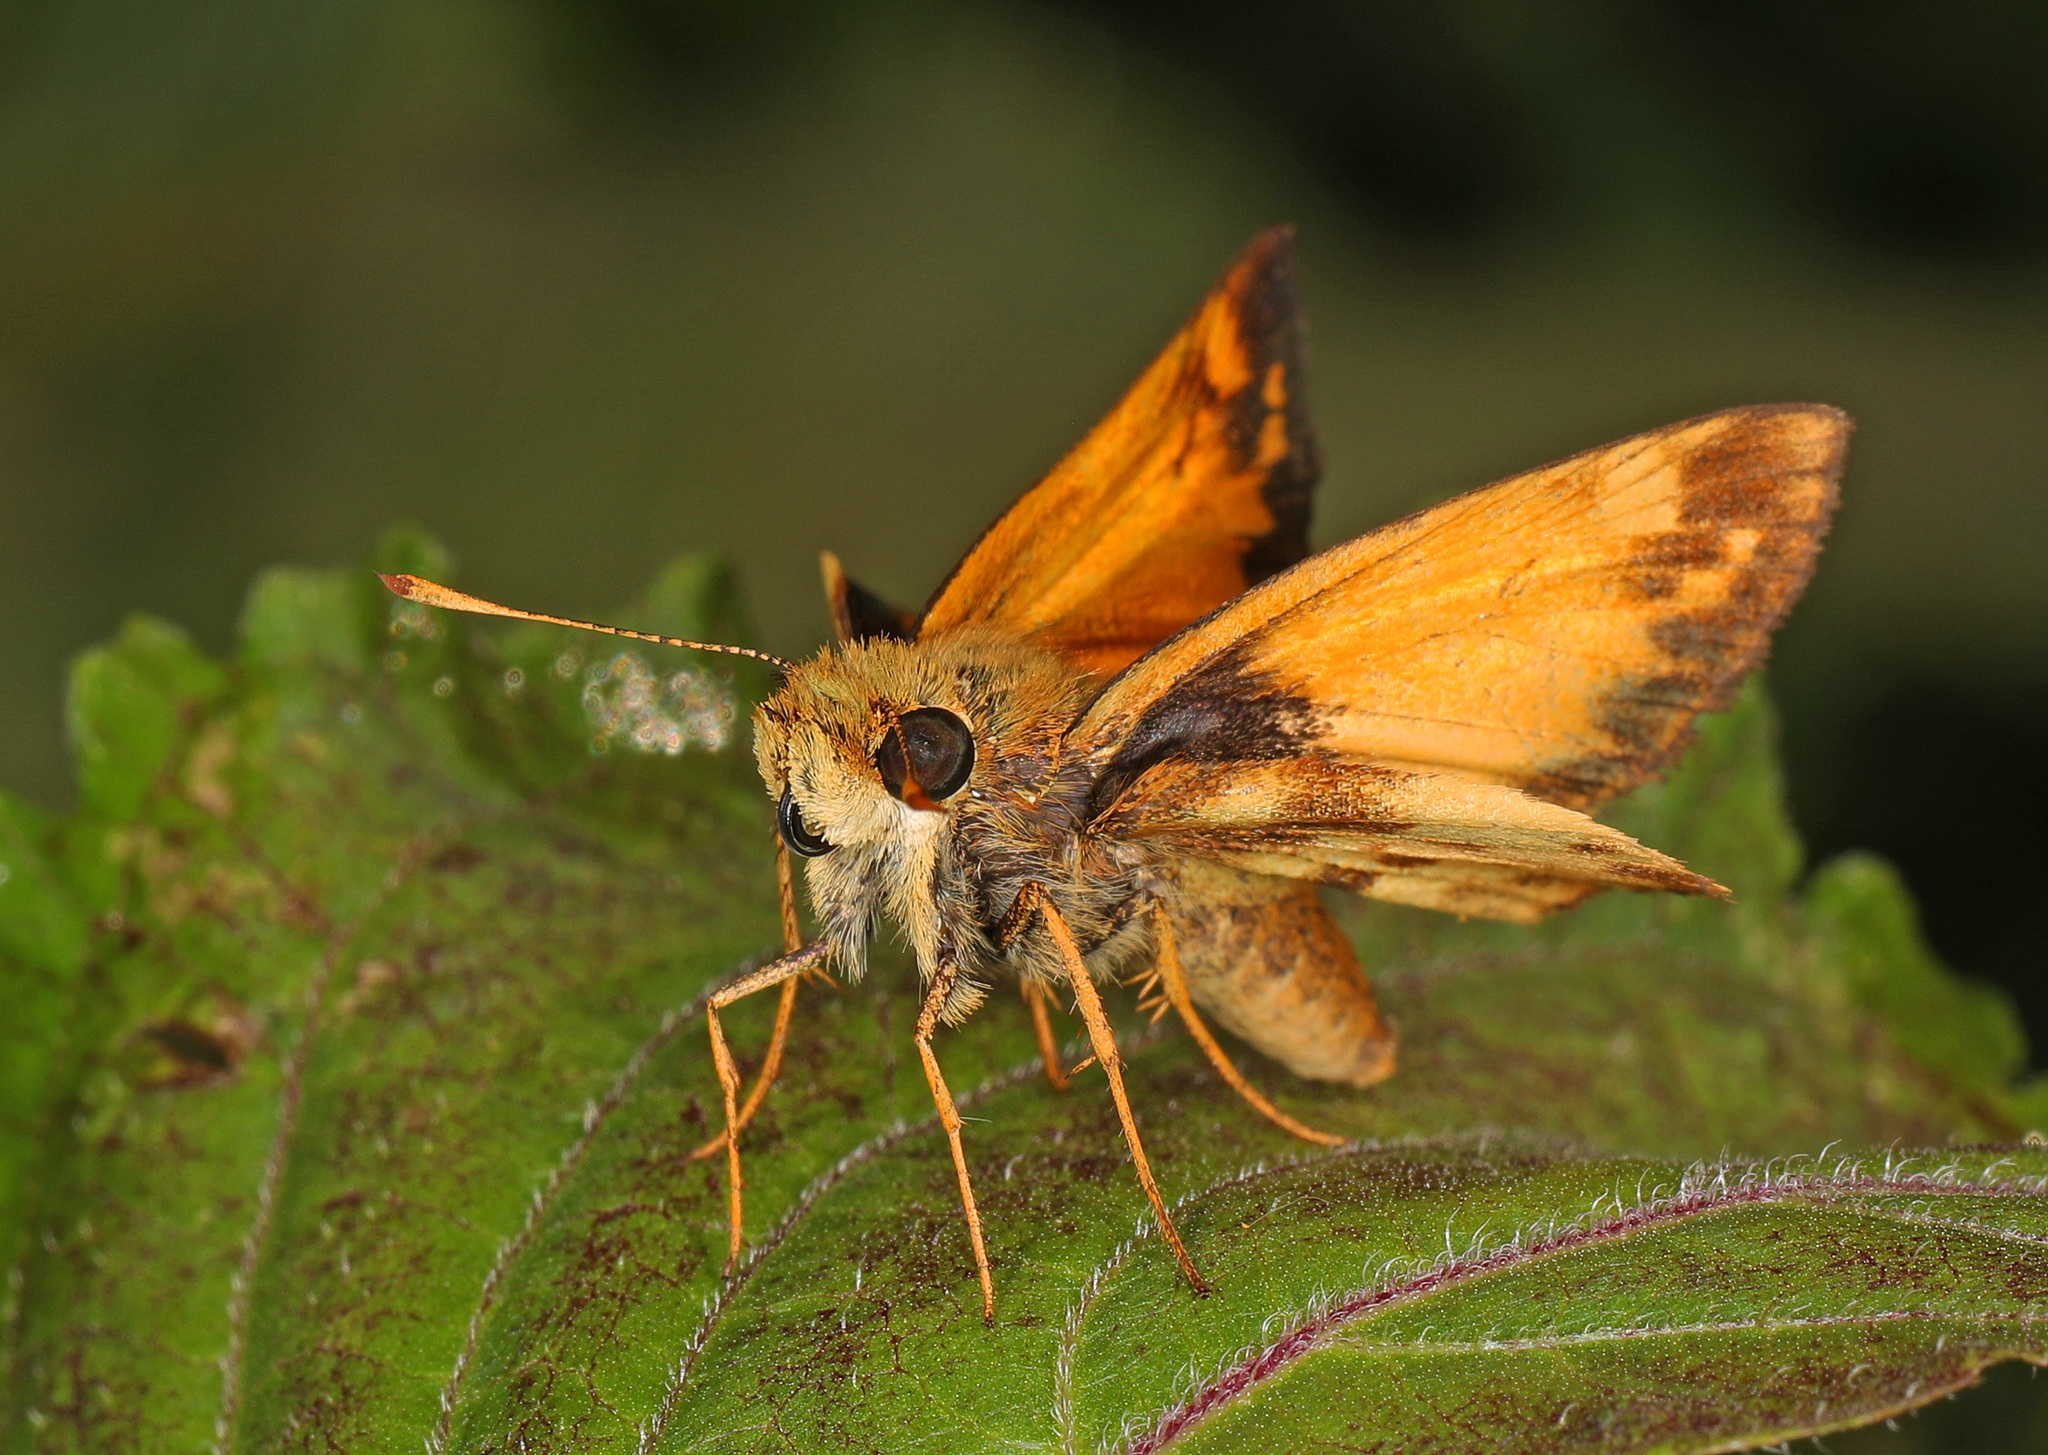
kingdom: Animalia
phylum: Arthropoda
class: Insecta
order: Lepidoptera
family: Hesperiidae
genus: Lon
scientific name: Lon zabulon
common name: Zabulon skipper
